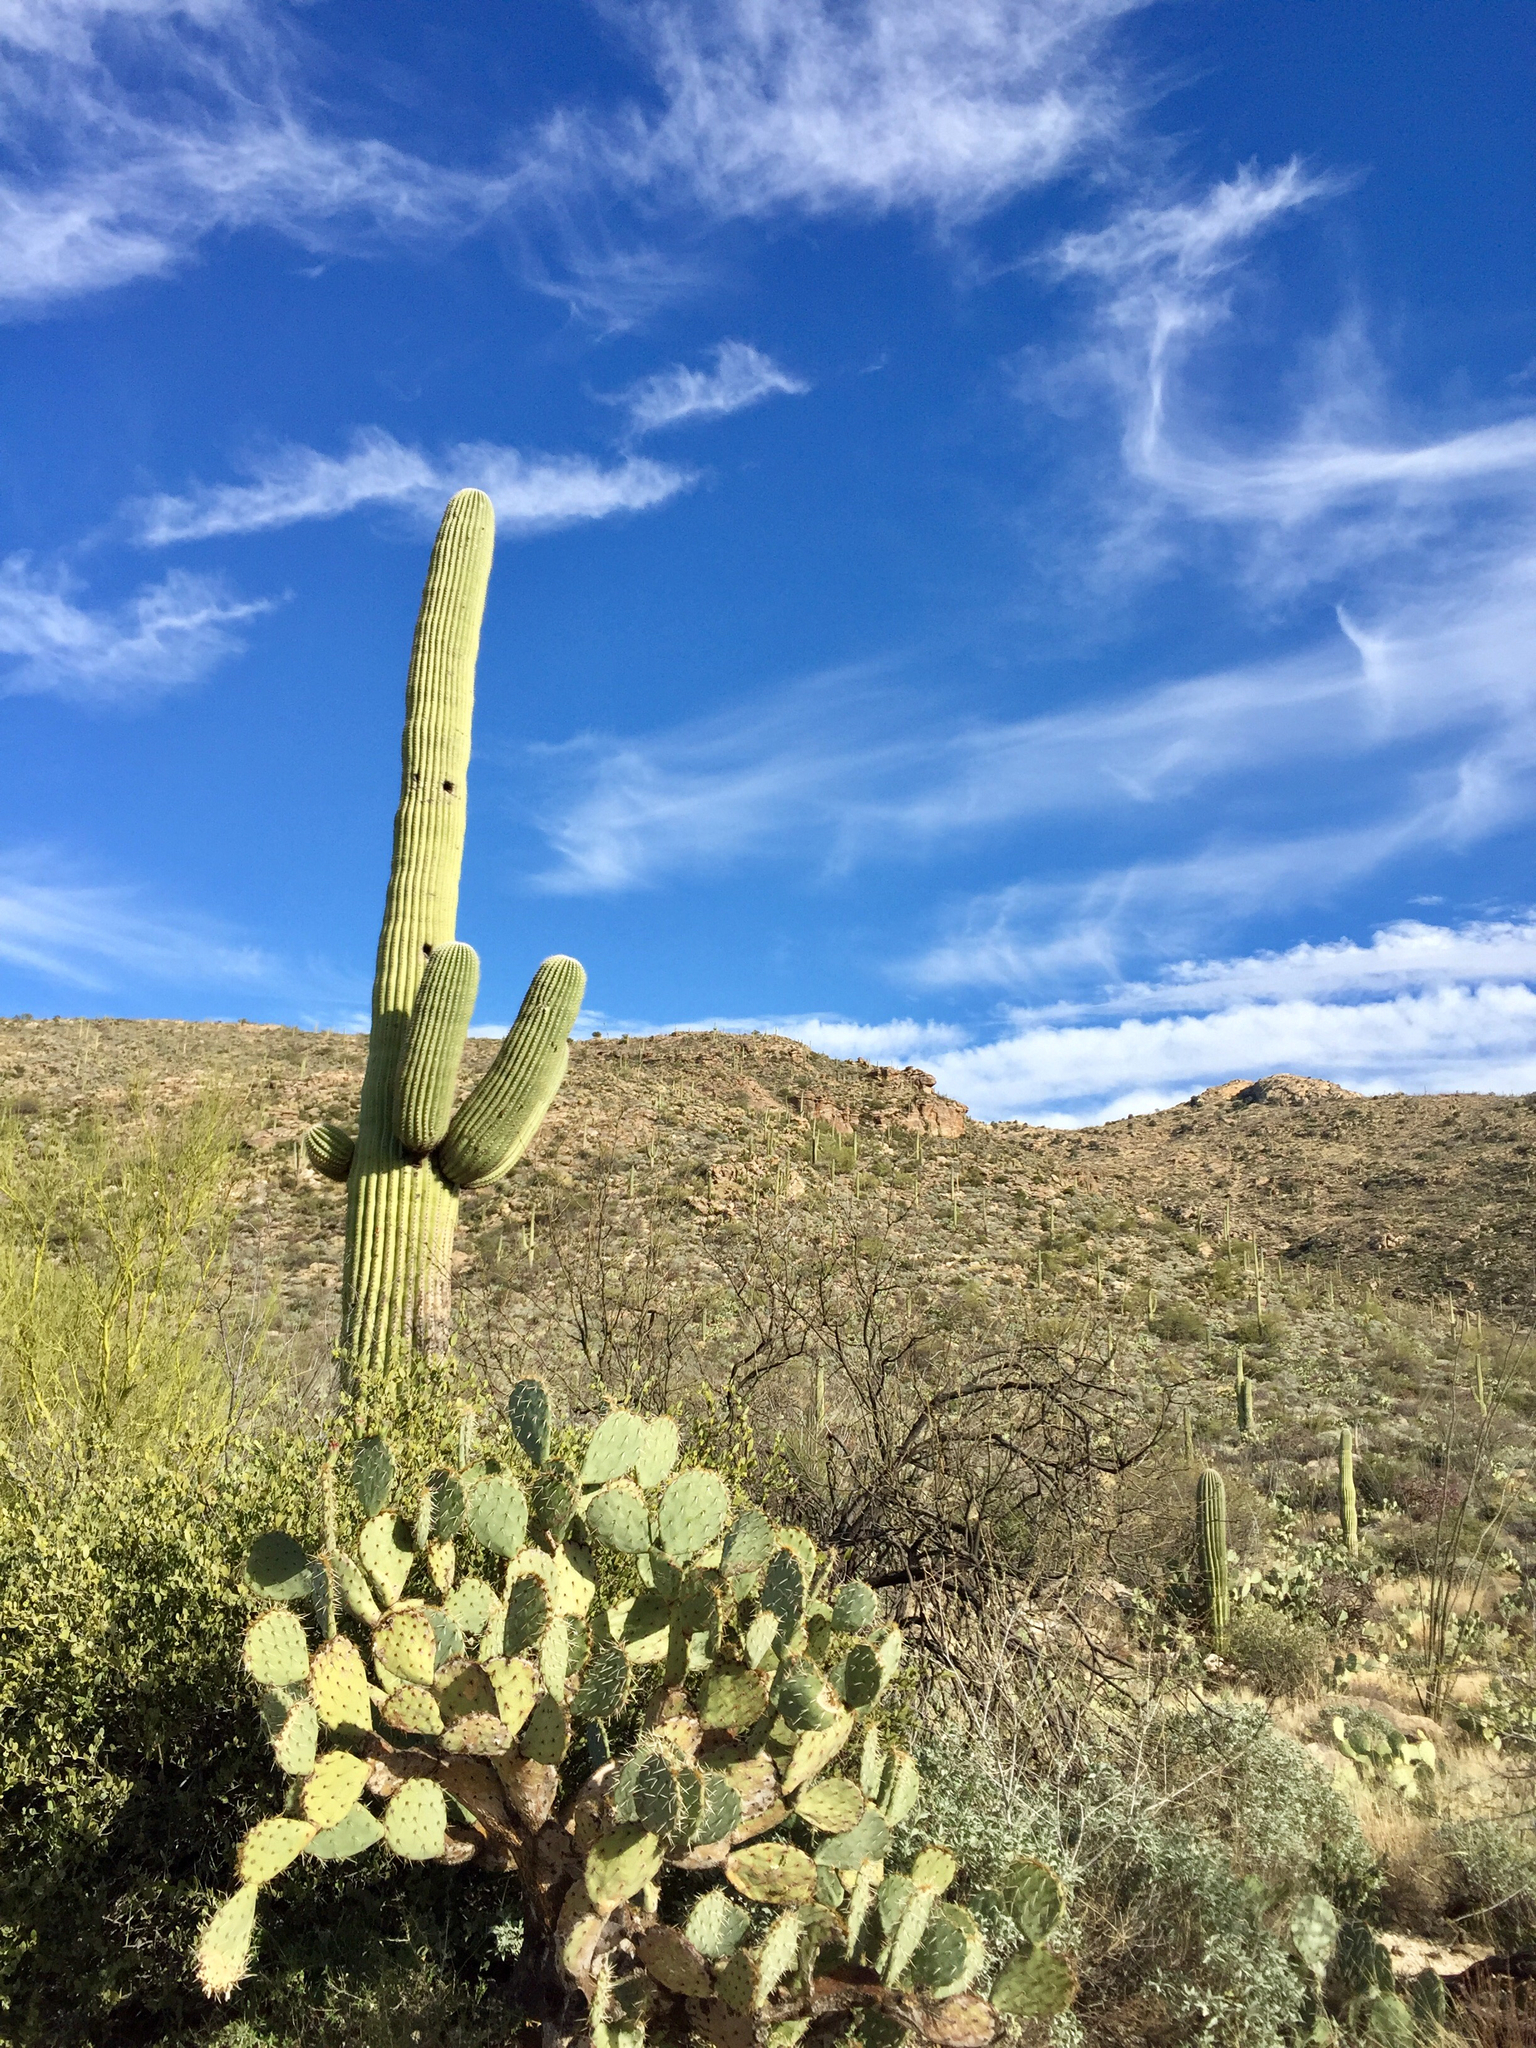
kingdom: Plantae
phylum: Tracheophyta
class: Magnoliopsida
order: Caryophyllales
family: Cactaceae
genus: Carnegiea
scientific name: Carnegiea gigantea
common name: Saguaro
